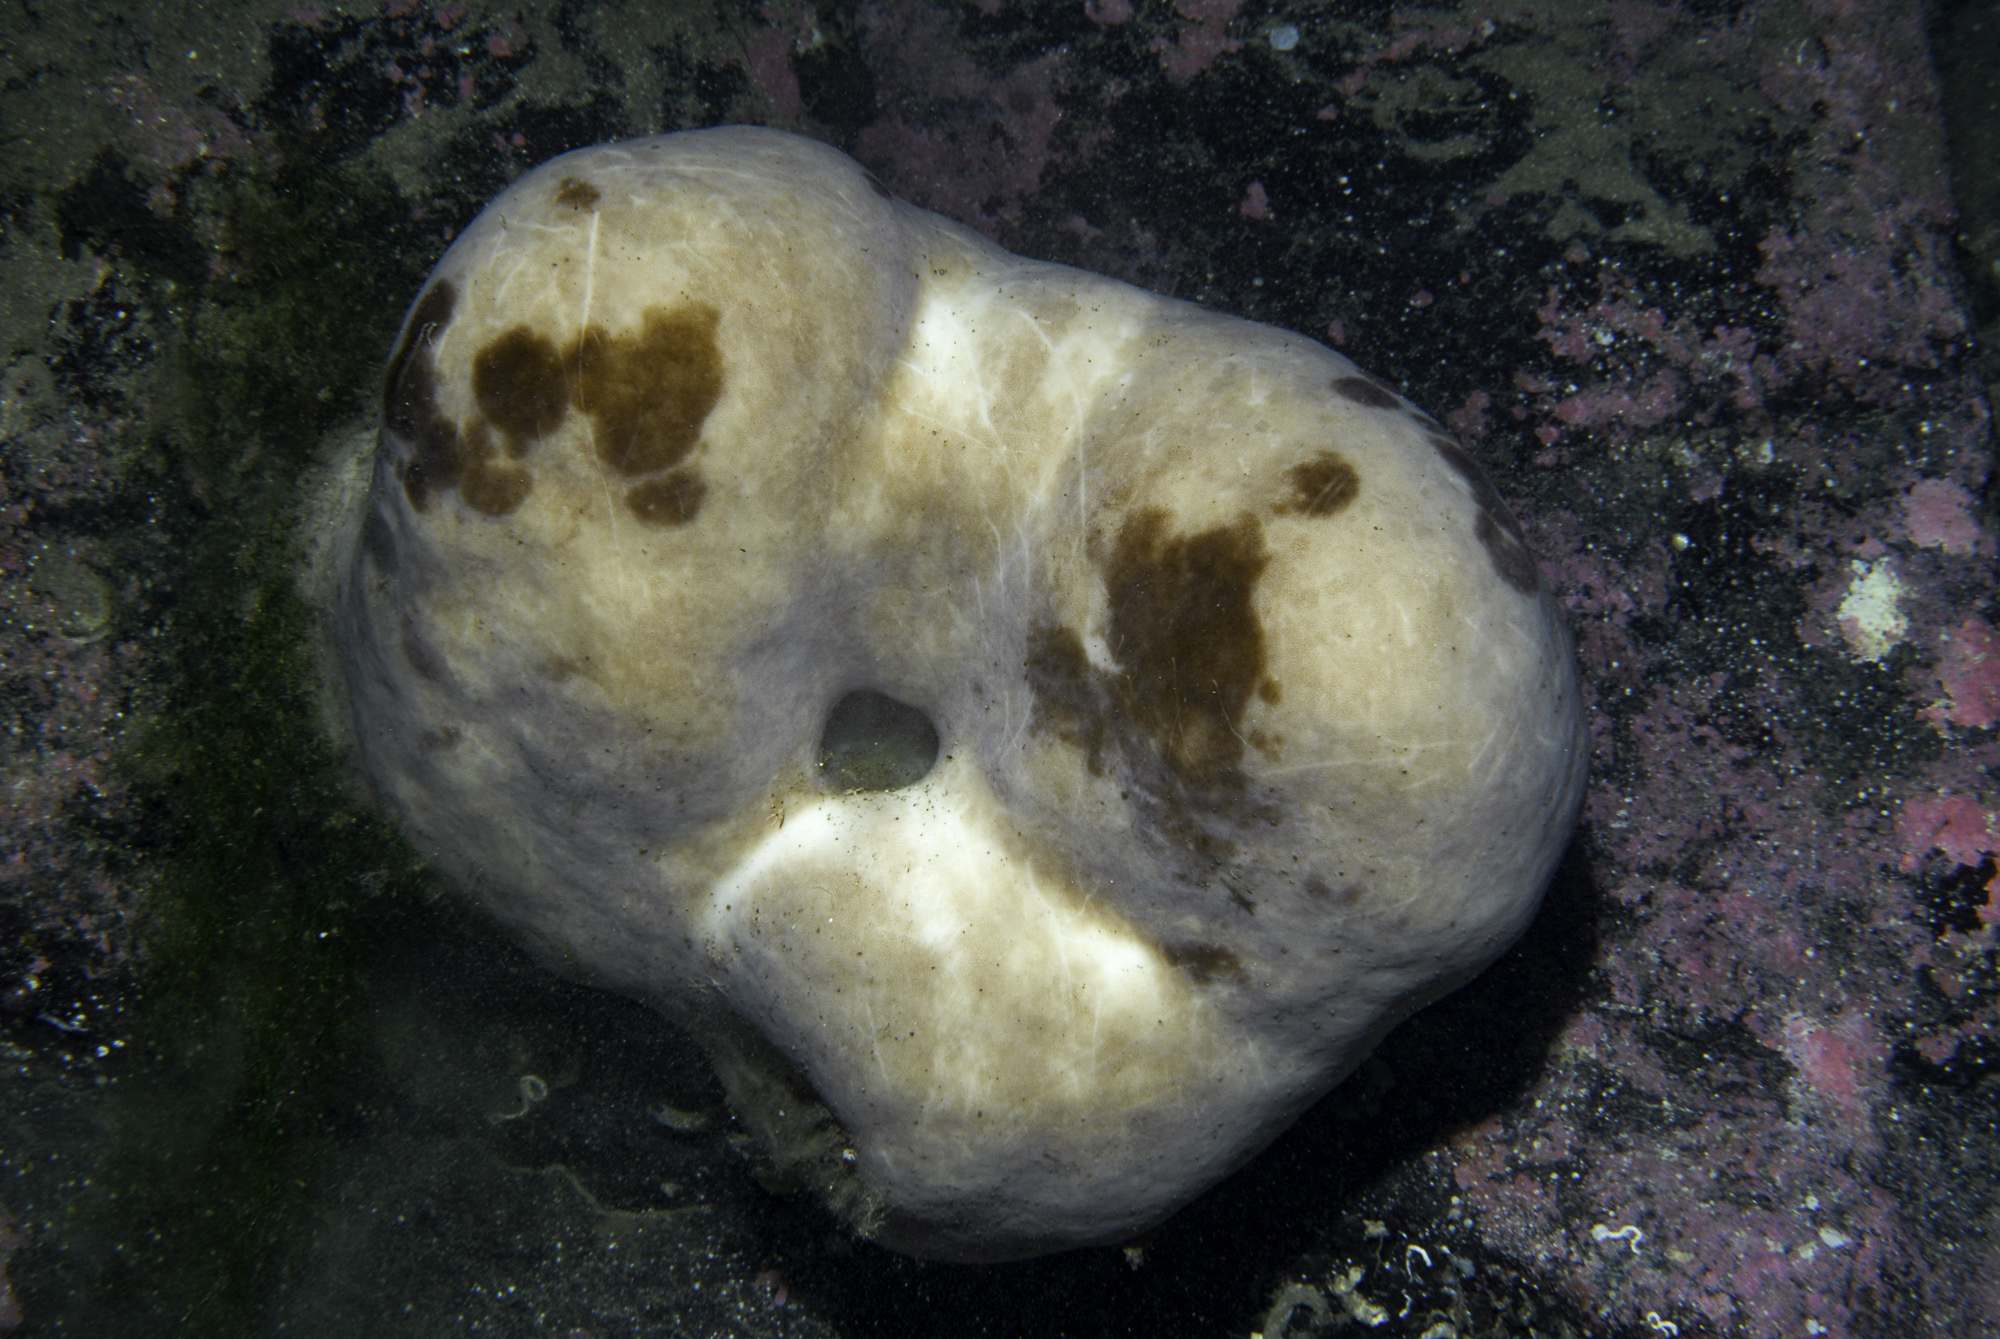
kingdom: Animalia
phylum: Porifera
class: Demospongiae
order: Tetractinellida
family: Geodiidae
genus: Geodia
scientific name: Geodia barretti
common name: Barrett's horny sponge
